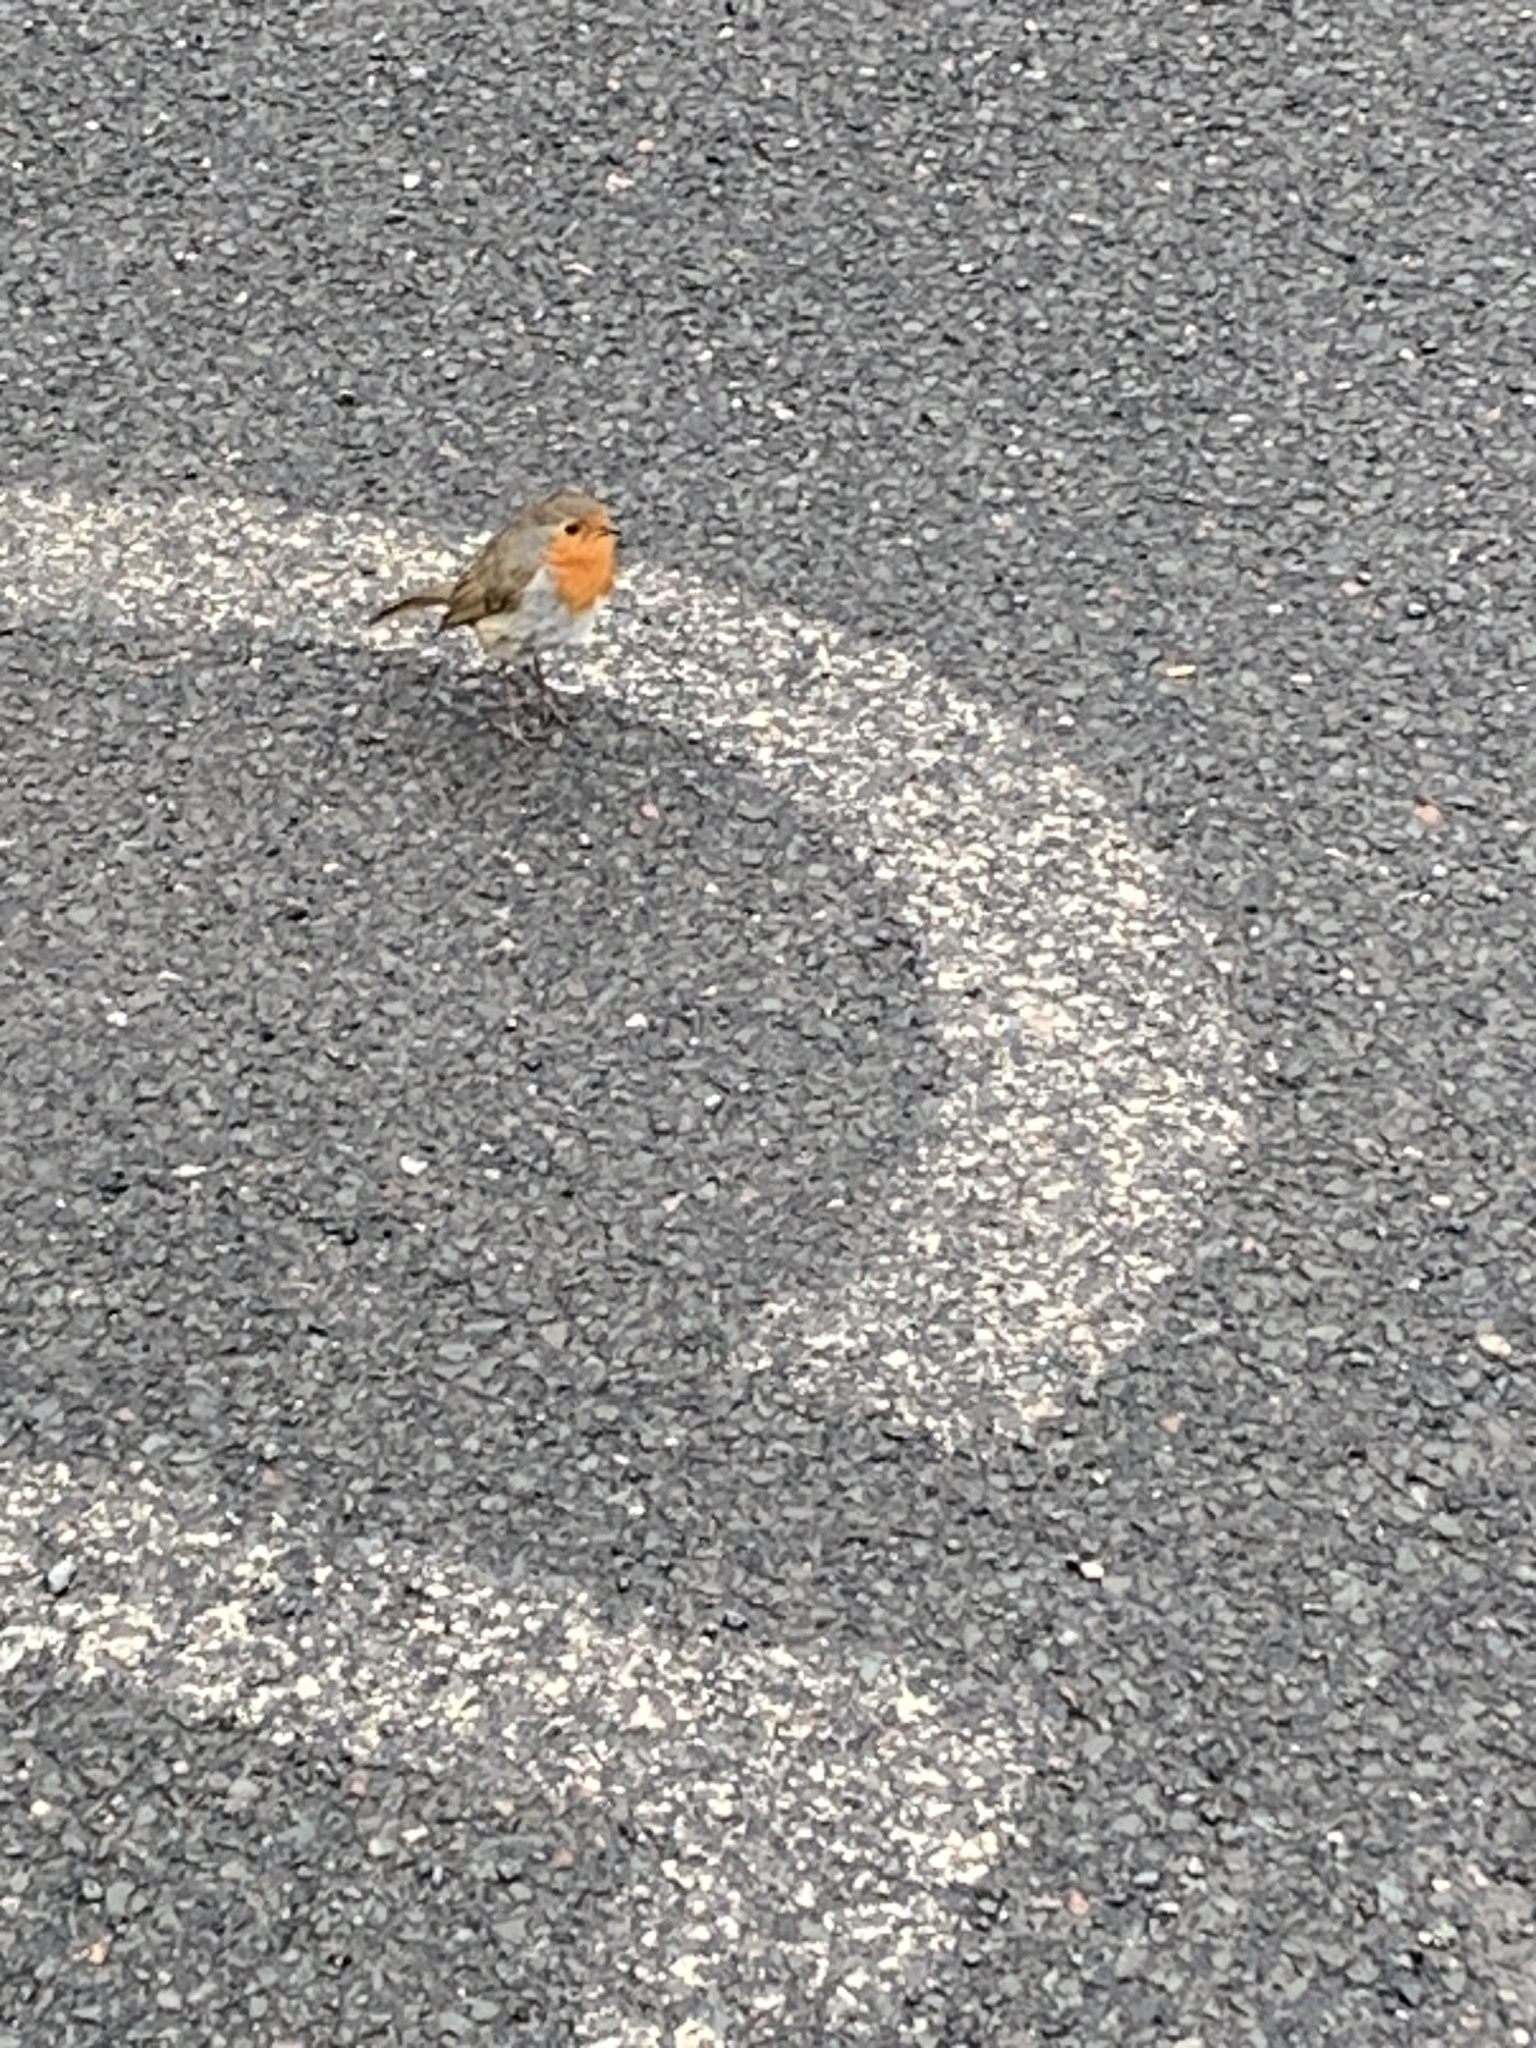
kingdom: Animalia
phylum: Chordata
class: Aves
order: Passeriformes
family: Muscicapidae
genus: Erithacus
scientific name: Erithacus rubecula
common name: European robin
